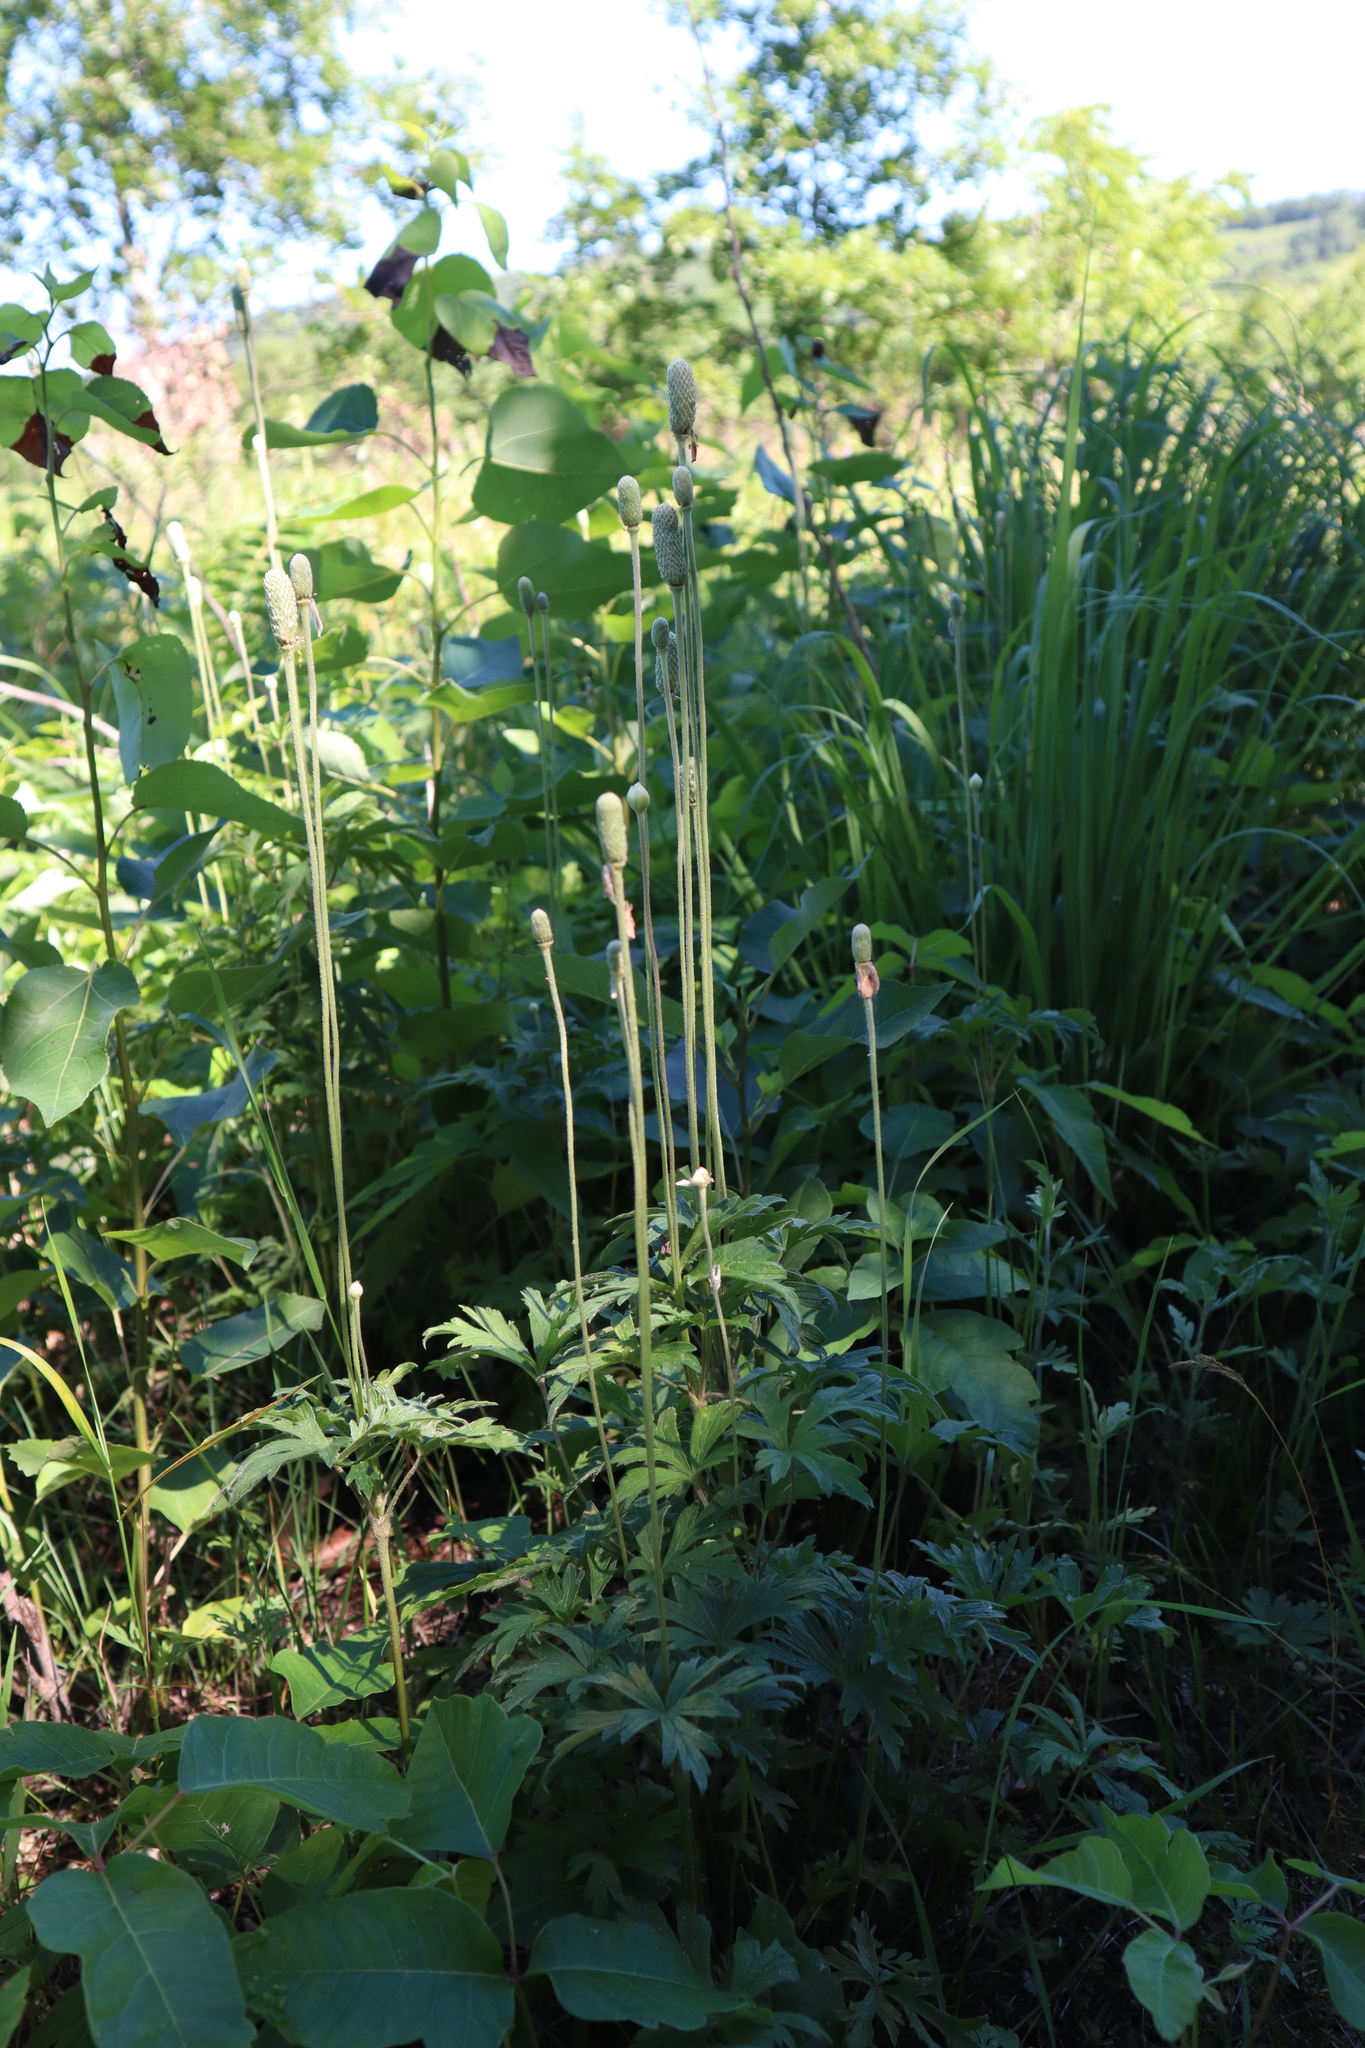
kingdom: Plantae
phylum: Tracheophyta
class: Magnoliopsida
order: Ranunculales
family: Ranunculaceae
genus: Anemone
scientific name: Anemone cylindrica
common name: Candle anemone
